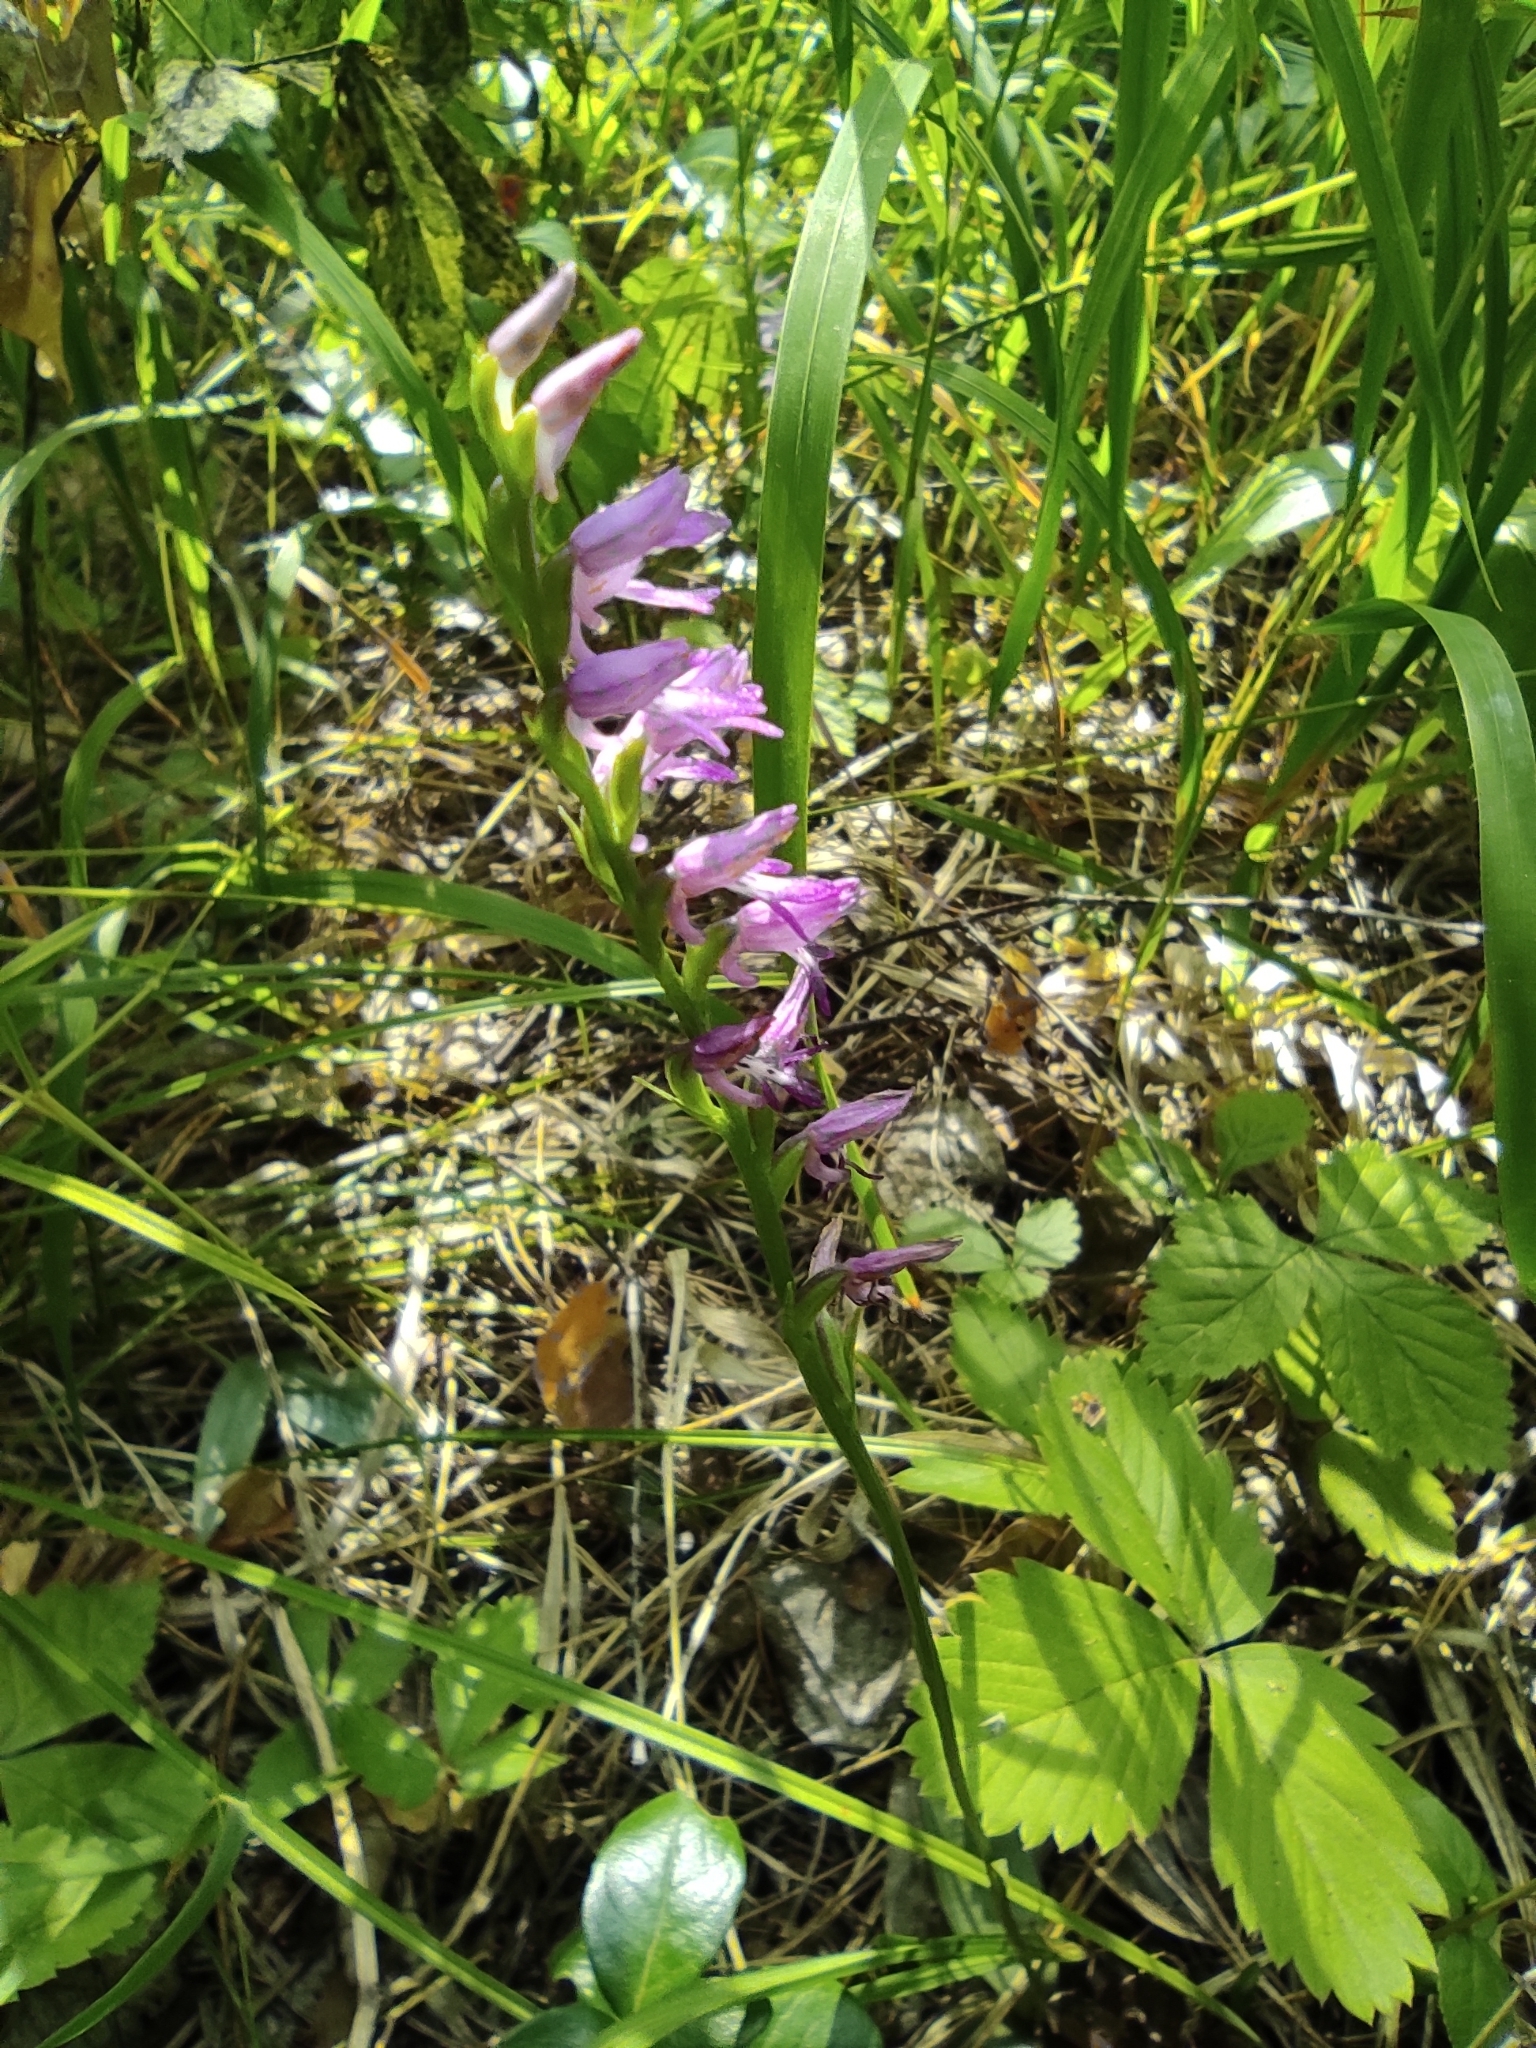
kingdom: Plantae
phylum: Tracheophyta
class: Liliopsida
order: Asparagales
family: Orchidaceae
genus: Hemipilia
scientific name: Hemipilia cucullata
